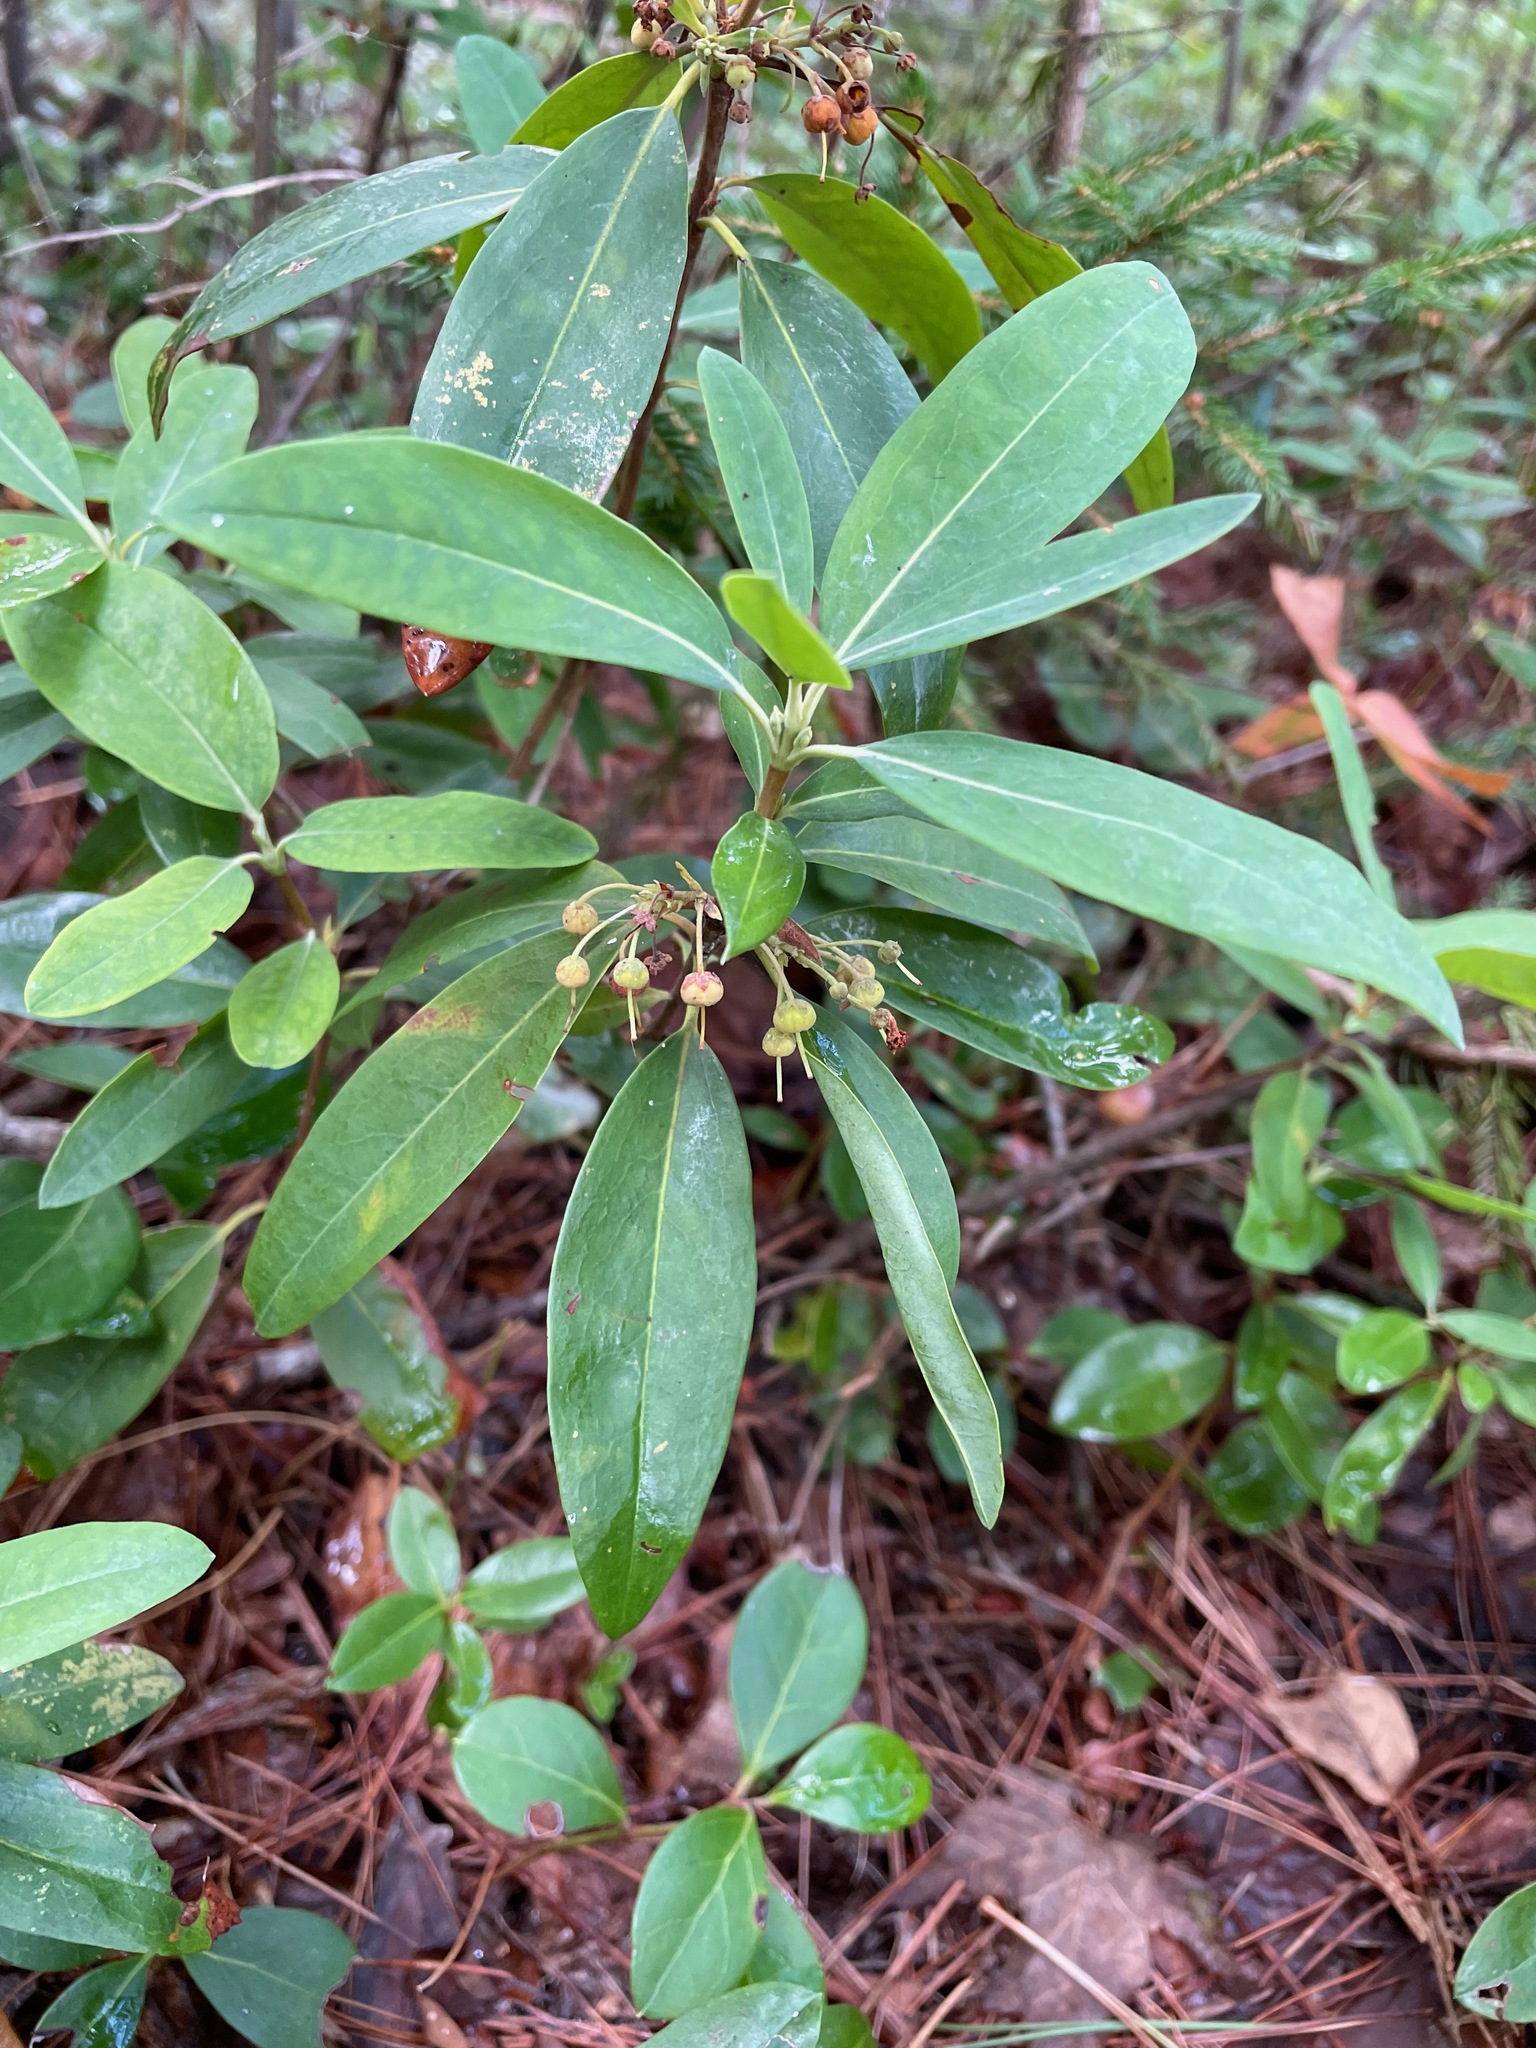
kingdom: Plantae
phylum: Tracheophyta
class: Magnoliopsida
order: Ericales
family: Ericaceae
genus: Kalmia
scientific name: Kalmia angustifolia
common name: Sheep-laurel
